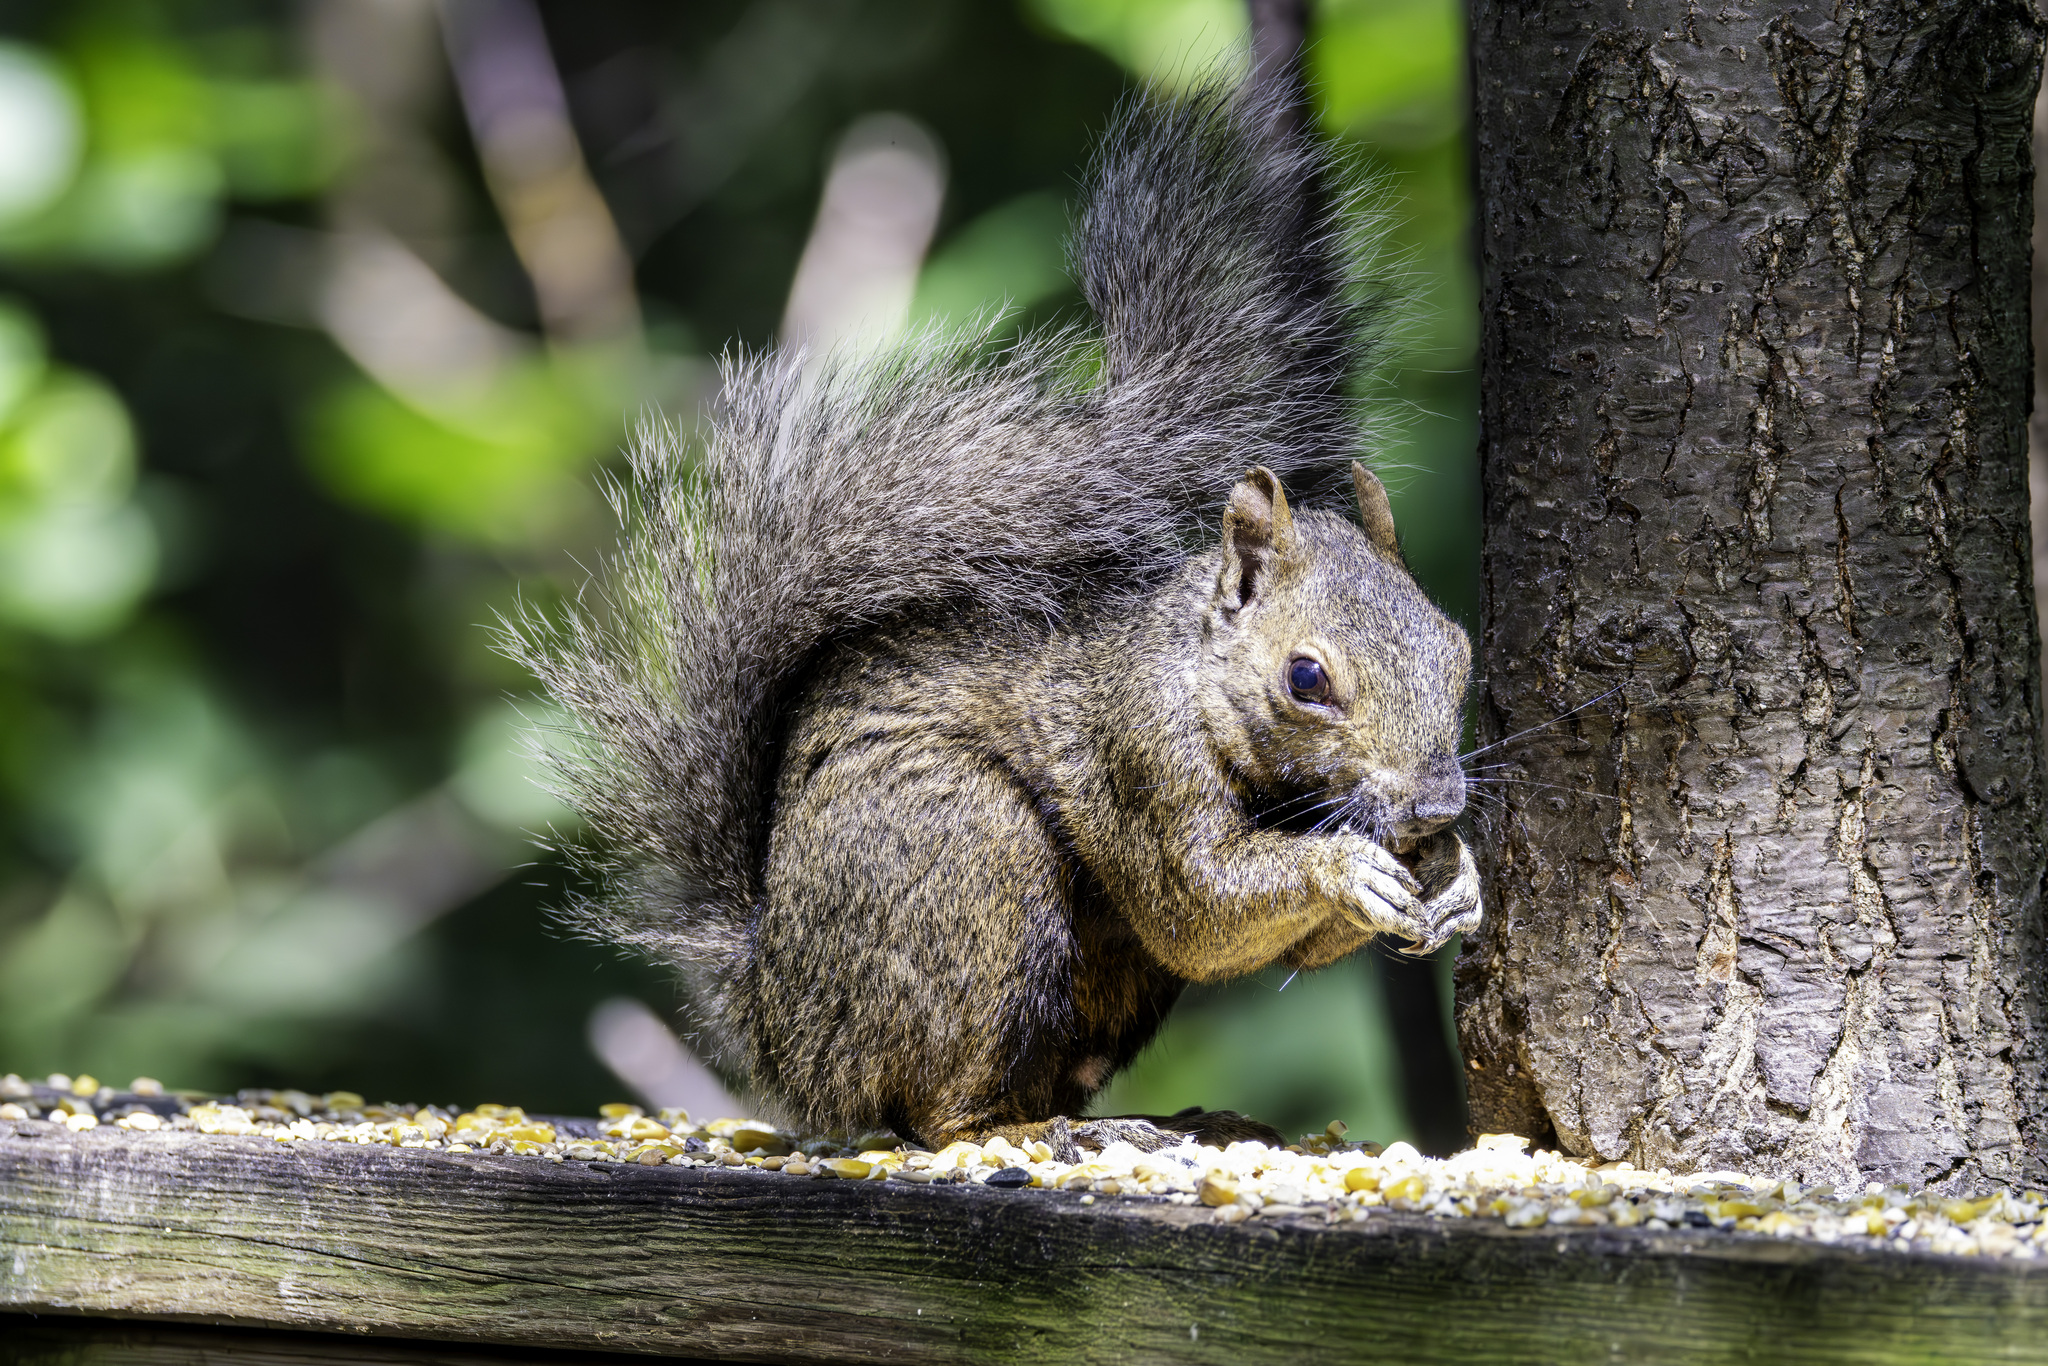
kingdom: Animalia
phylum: Chordata
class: Mammalia
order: Rodentia
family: Sciuridae
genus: Sciurus
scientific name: Sciurus carolinensis
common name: Eastern gray squirrel
